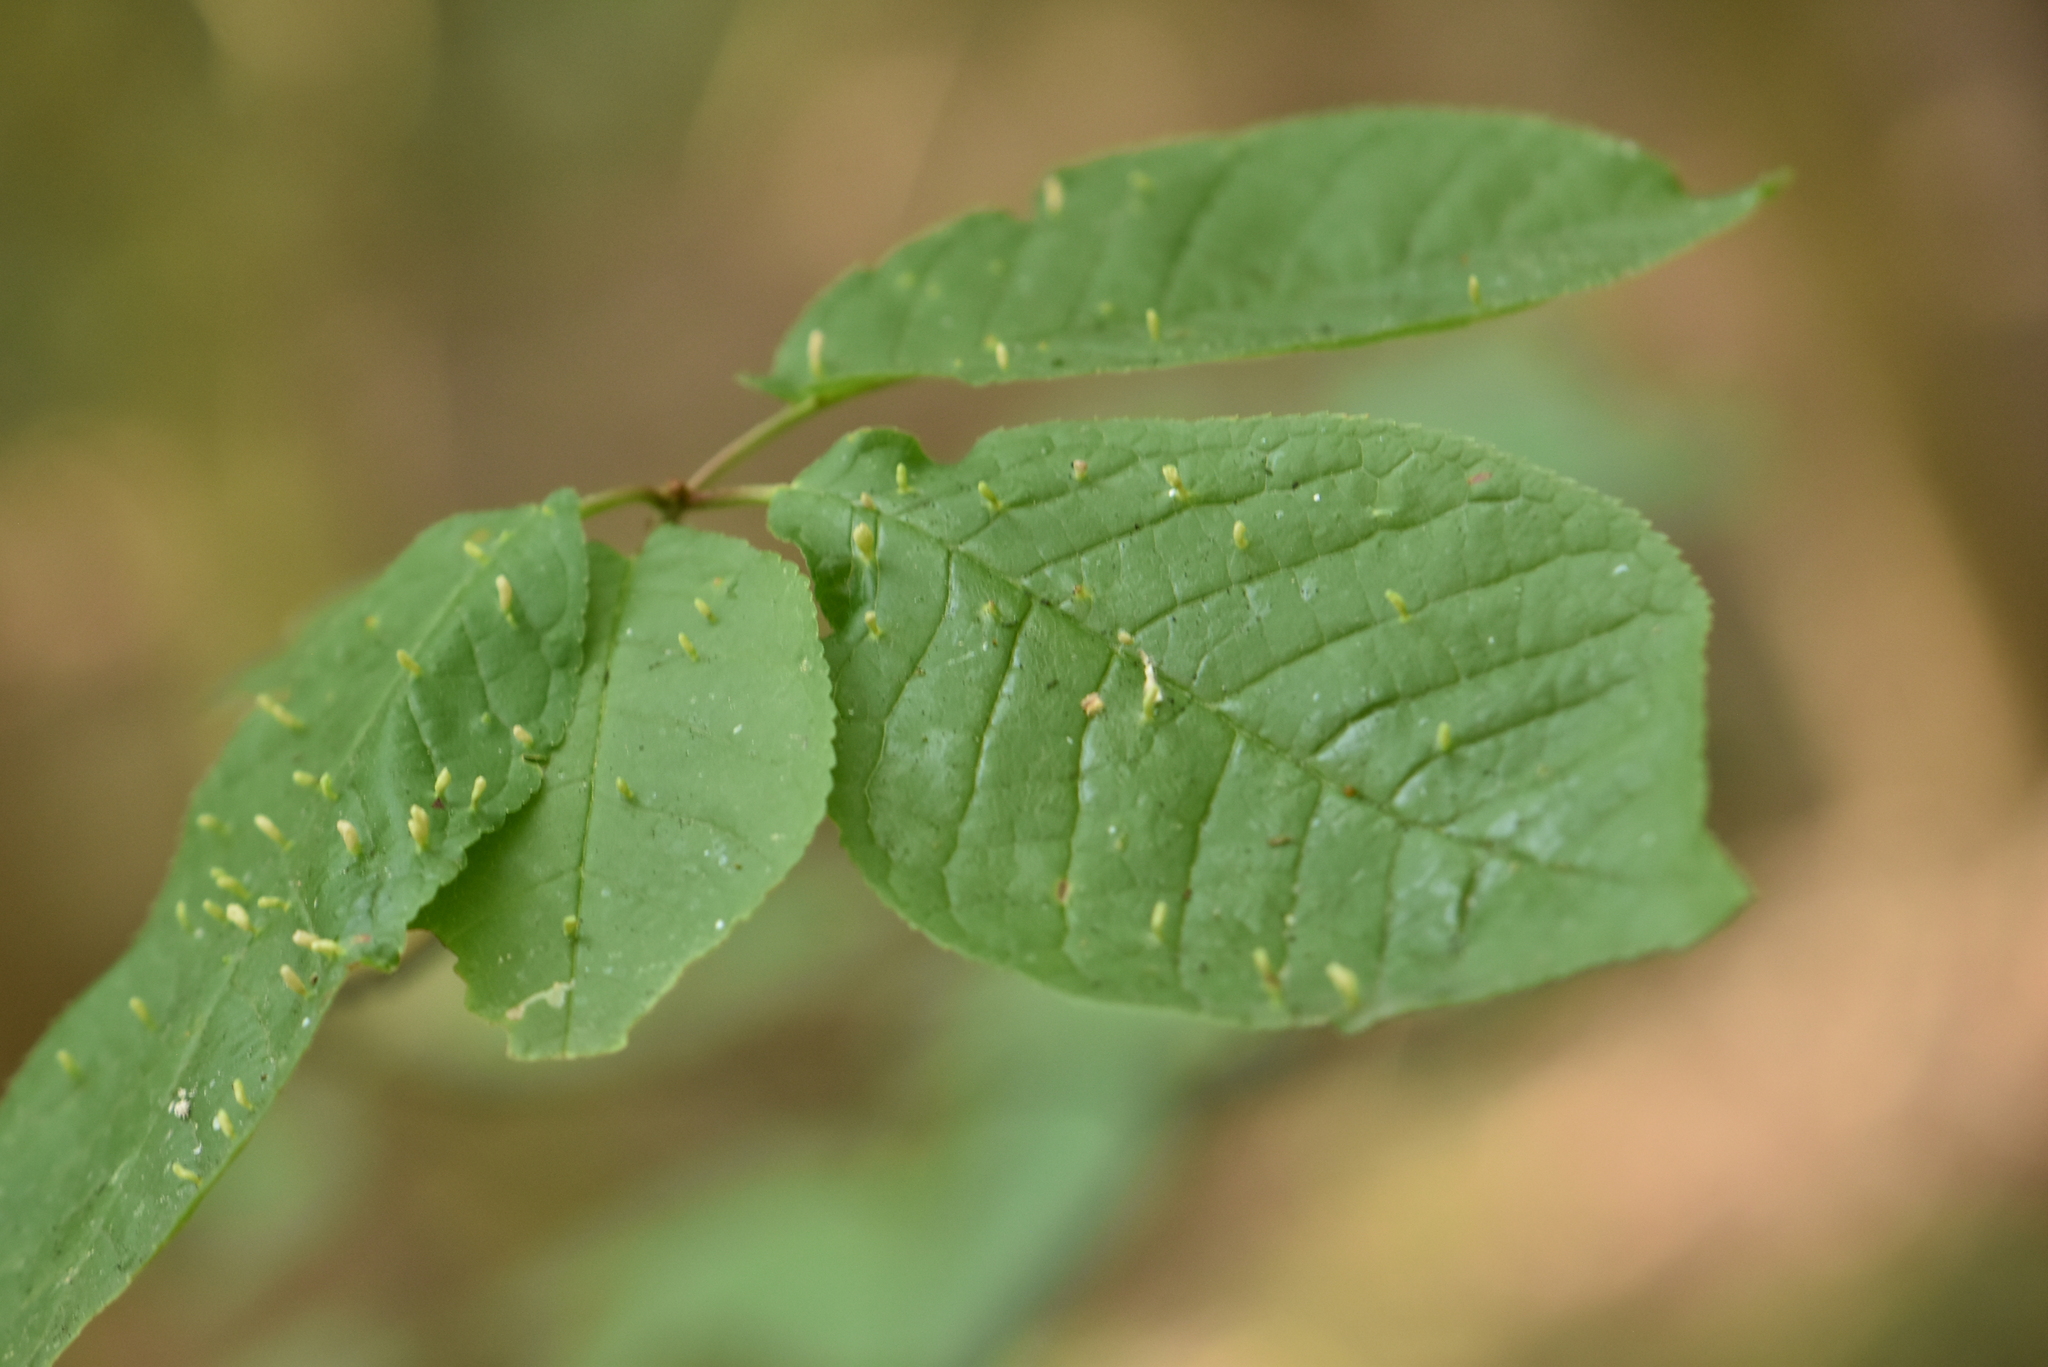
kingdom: Plantae
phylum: Tracheophyta
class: Magnoliopsida
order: Rosales
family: Rosaceae
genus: Prunus
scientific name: Prunus padus
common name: Bird cherry
